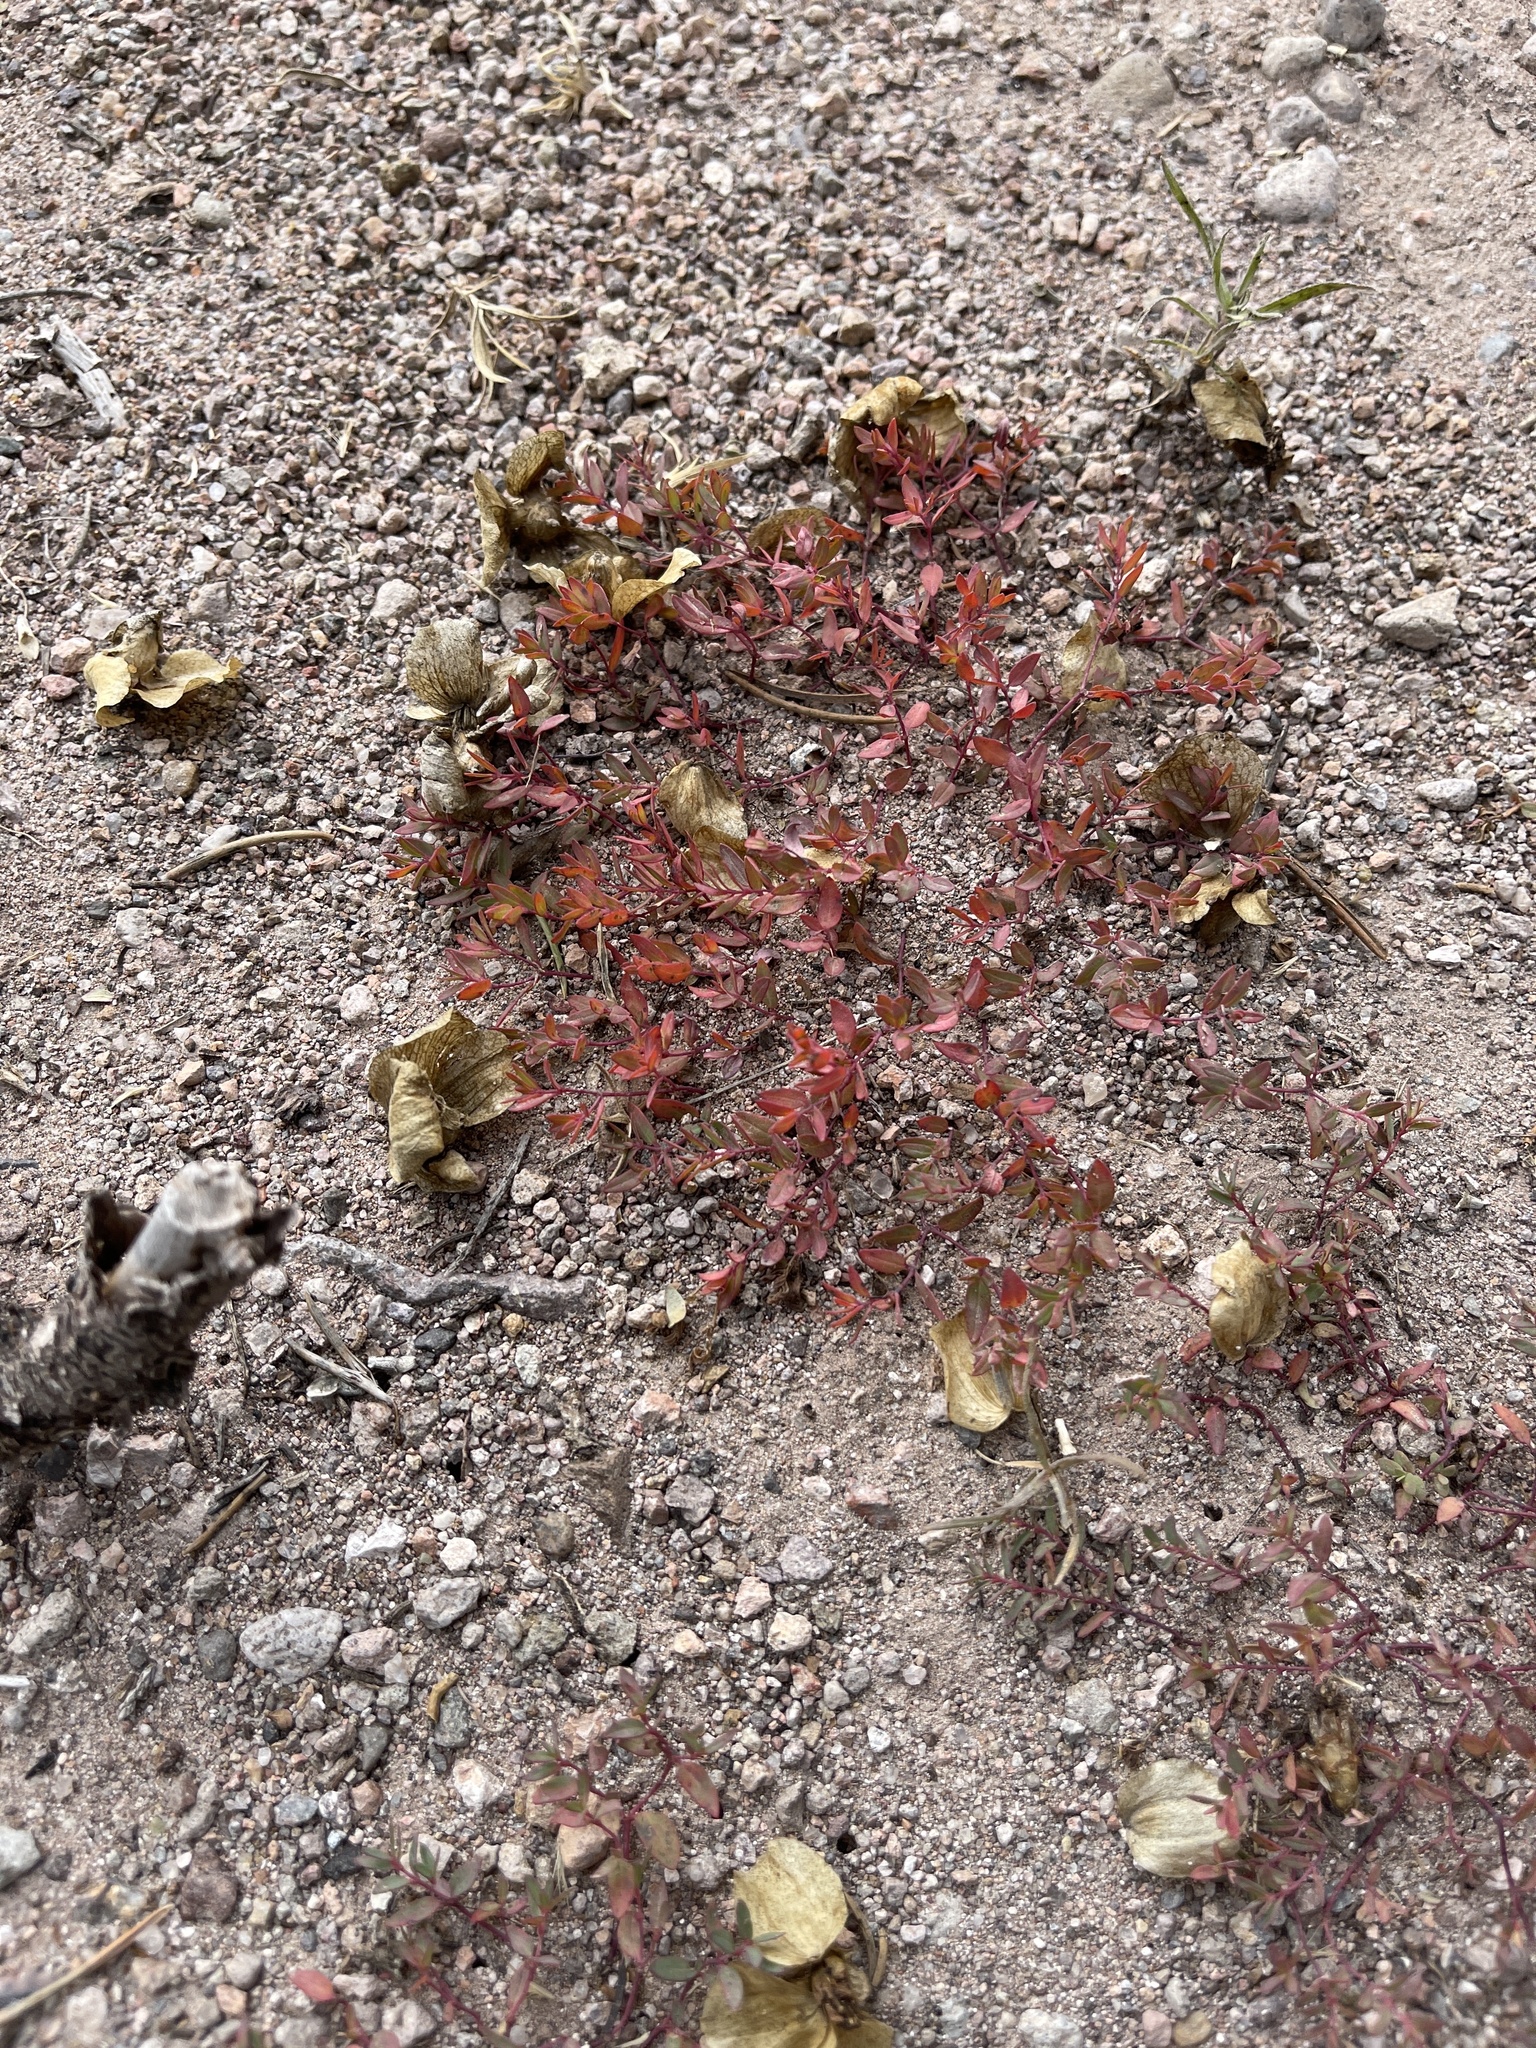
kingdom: Plantae
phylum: Tracheophyta
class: Magnoliopsida
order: Malpighiales
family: Euphorbiaceae
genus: Euphorbia
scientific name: Euphorbia chaetocalyx
